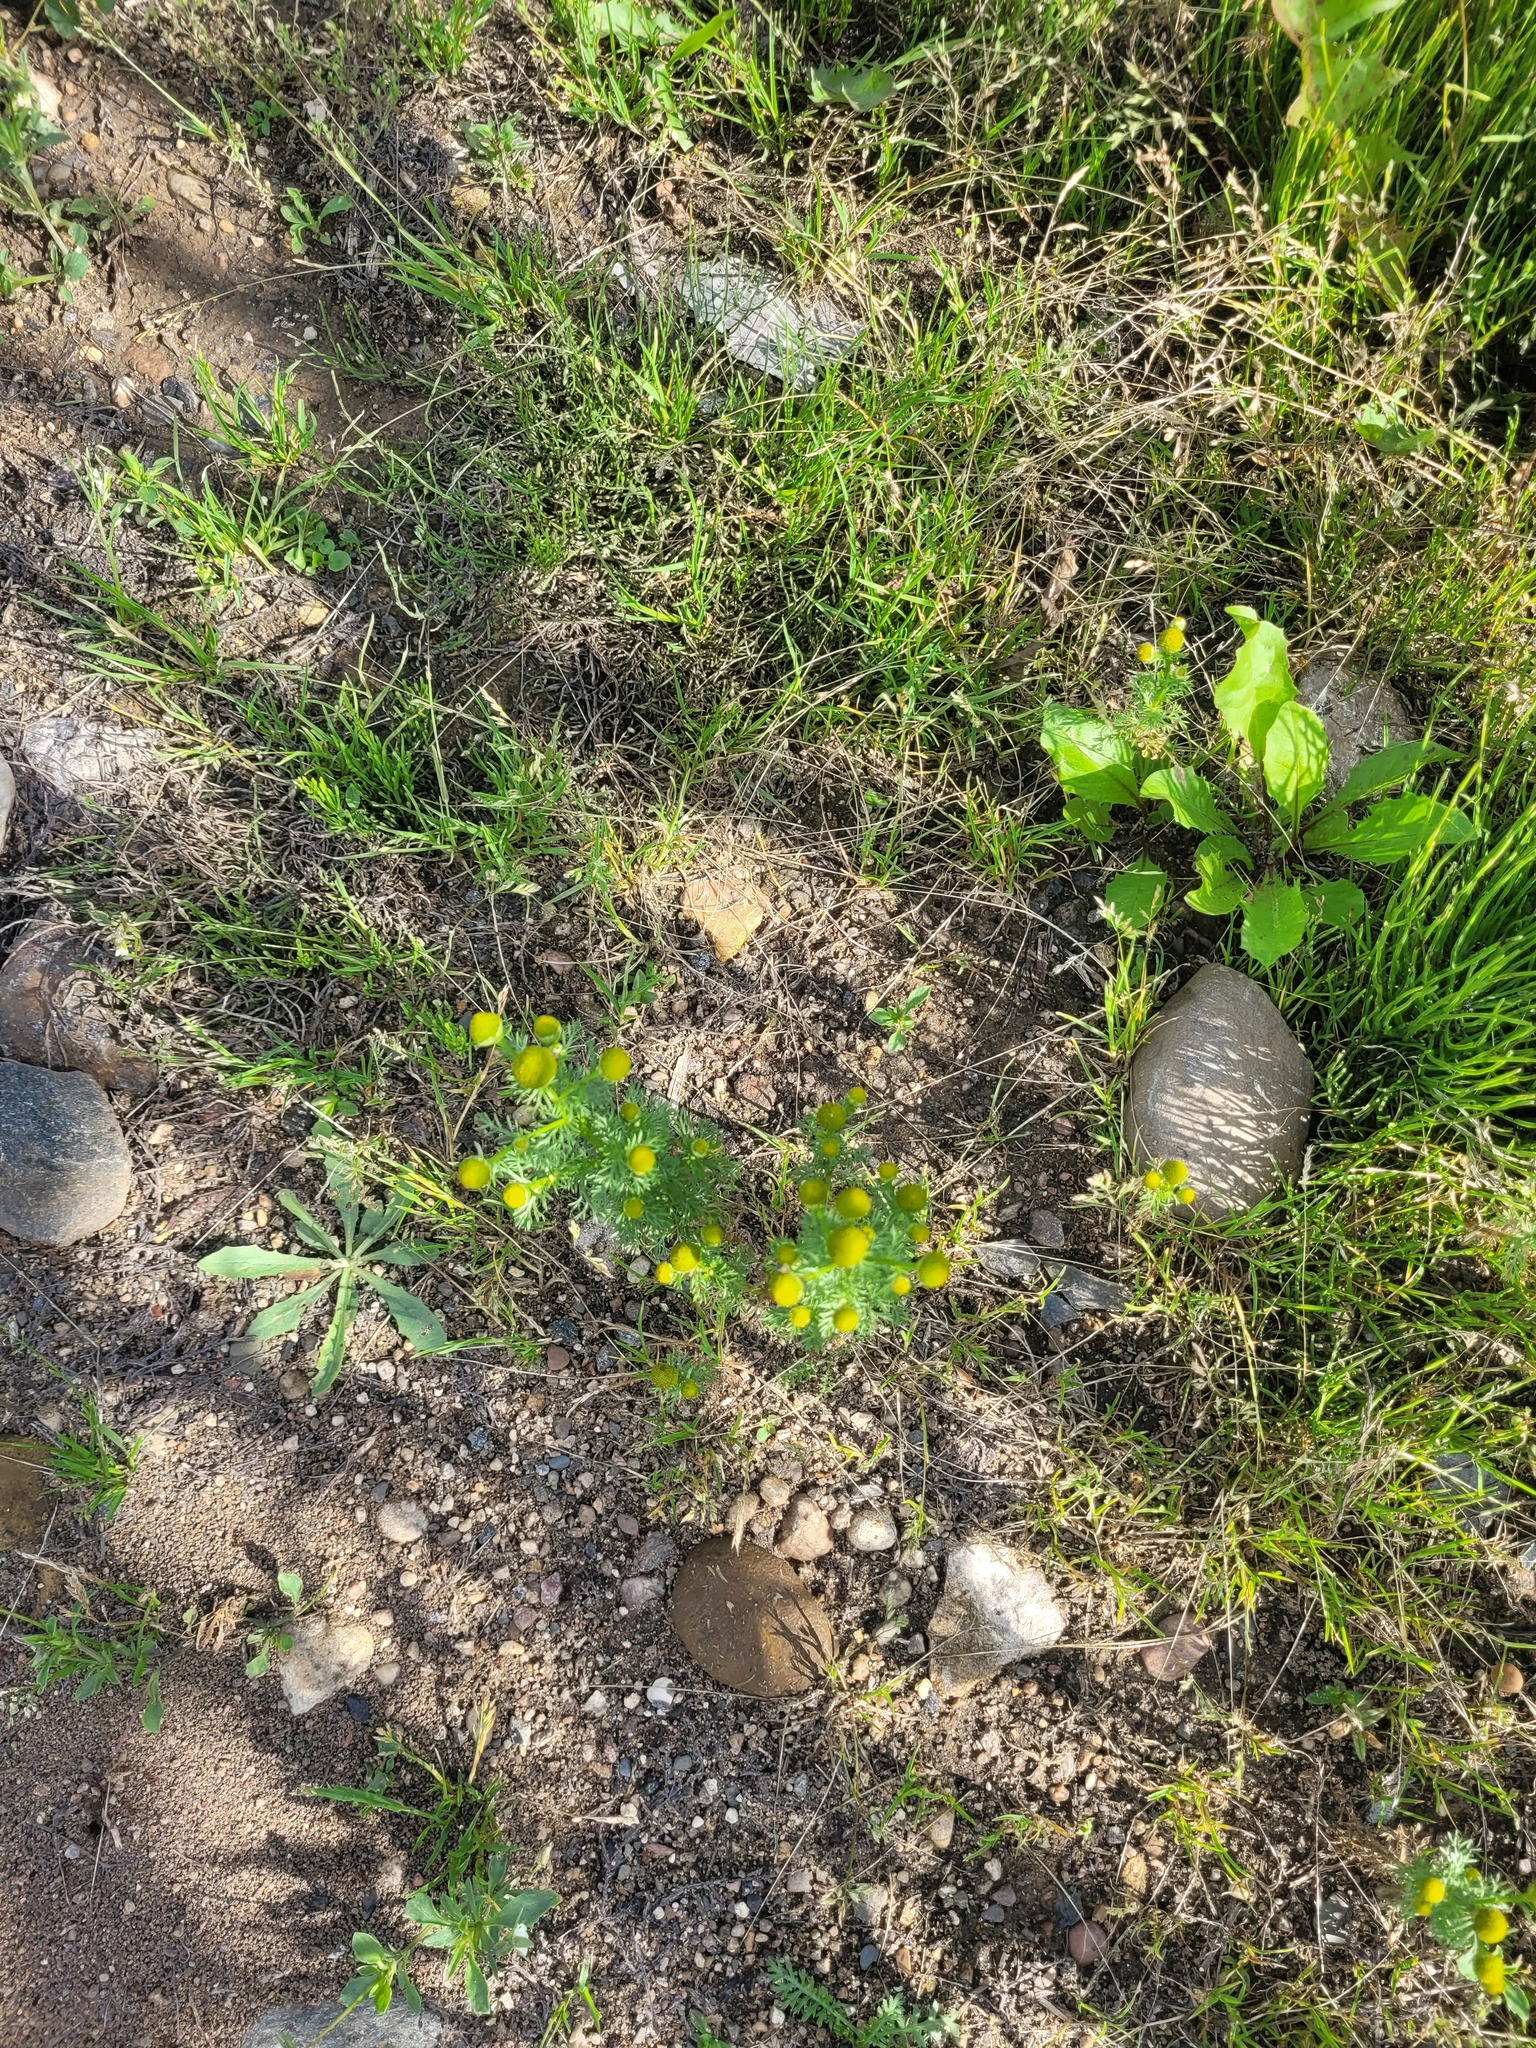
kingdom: Plantae
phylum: Tracheophyta
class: Magnoliopsida
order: Asterales
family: Asteraceae
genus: Matricaria
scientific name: Matricaria discoidea
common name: Disc mayweed
